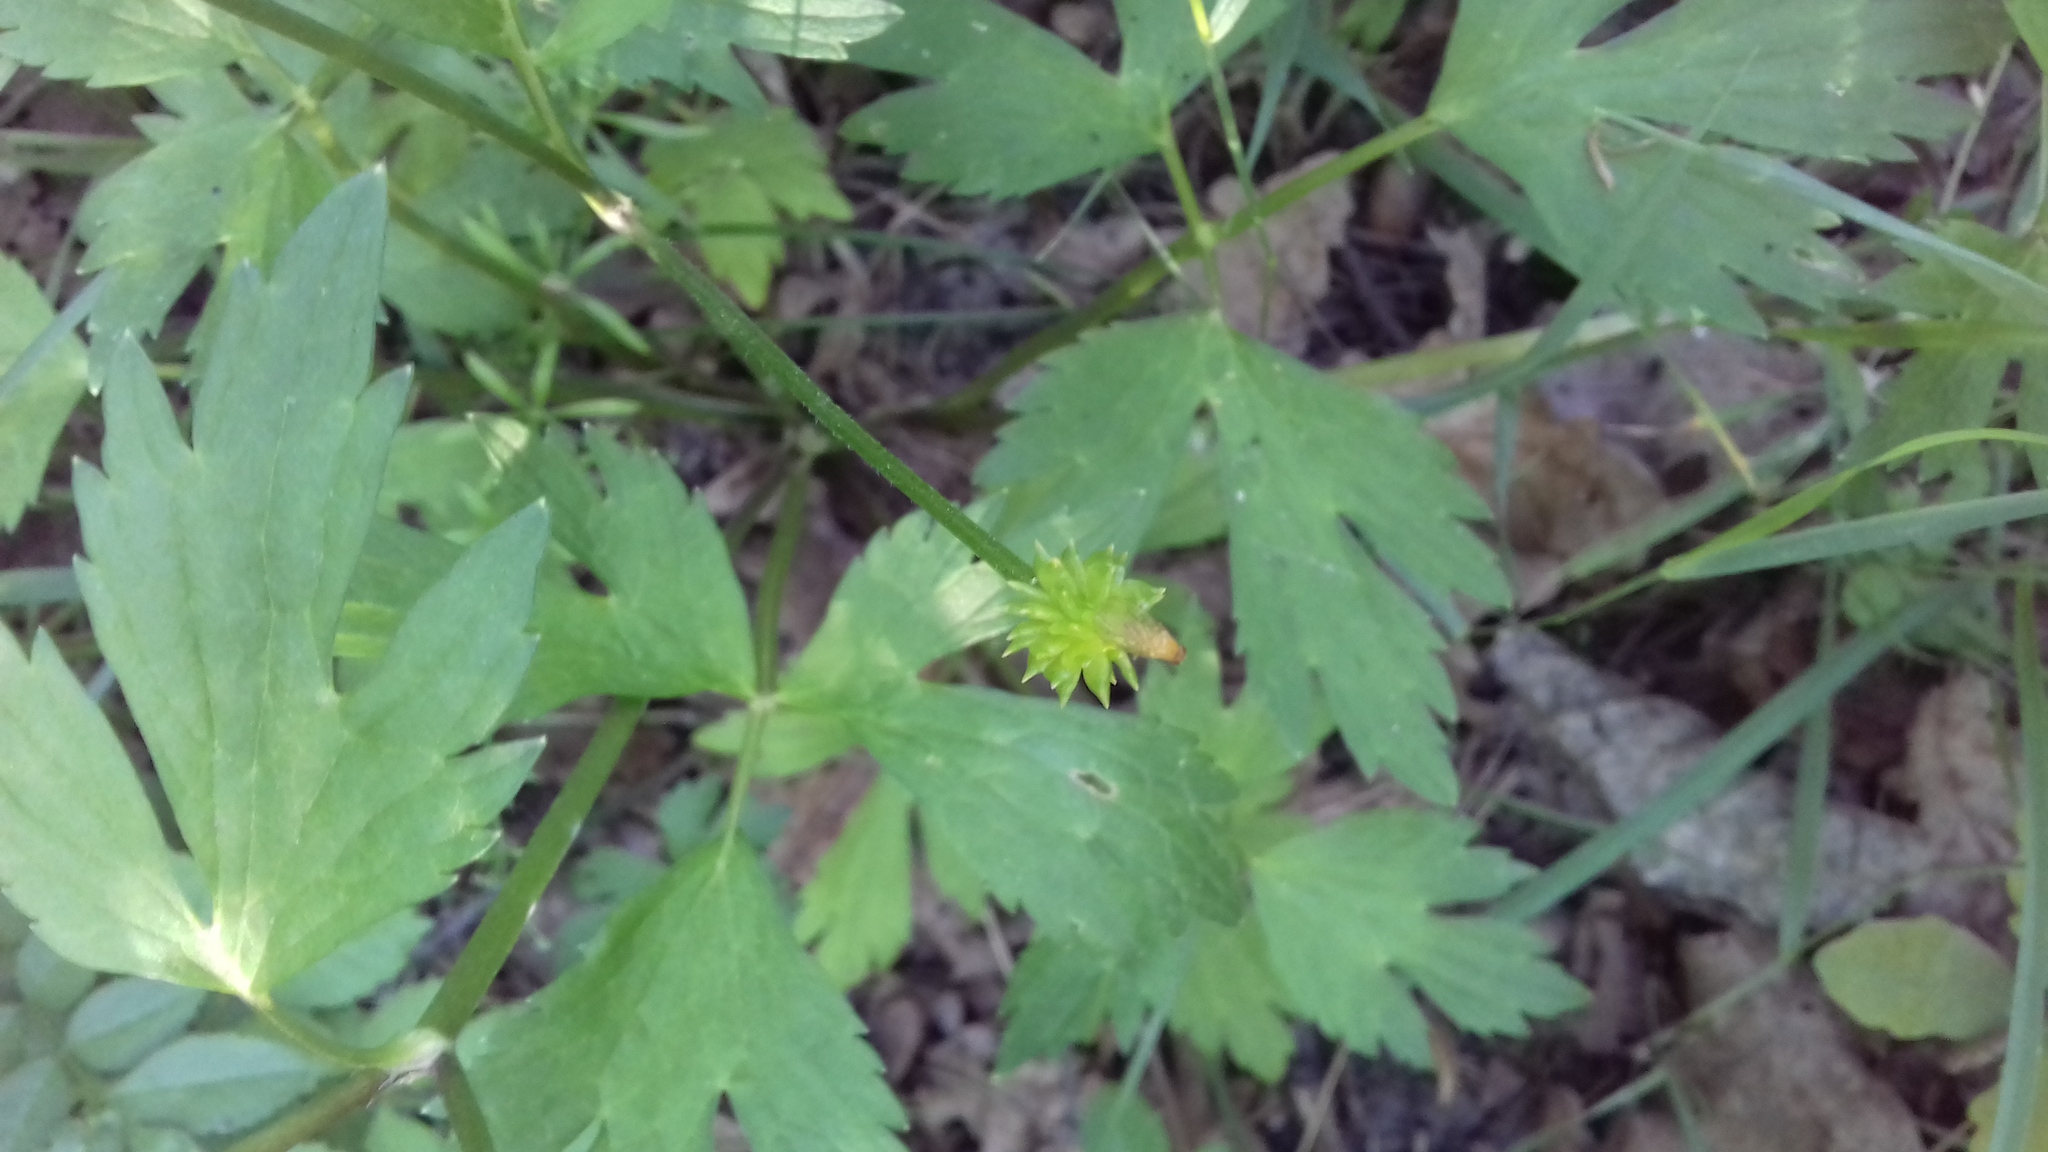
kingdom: Plantae
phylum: Tracheophyta
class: Magnoliopsida
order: Ranunculales
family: Ranunculaceae
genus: Ranunculus
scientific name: Ranunculus repens
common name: Creeping buttercup
